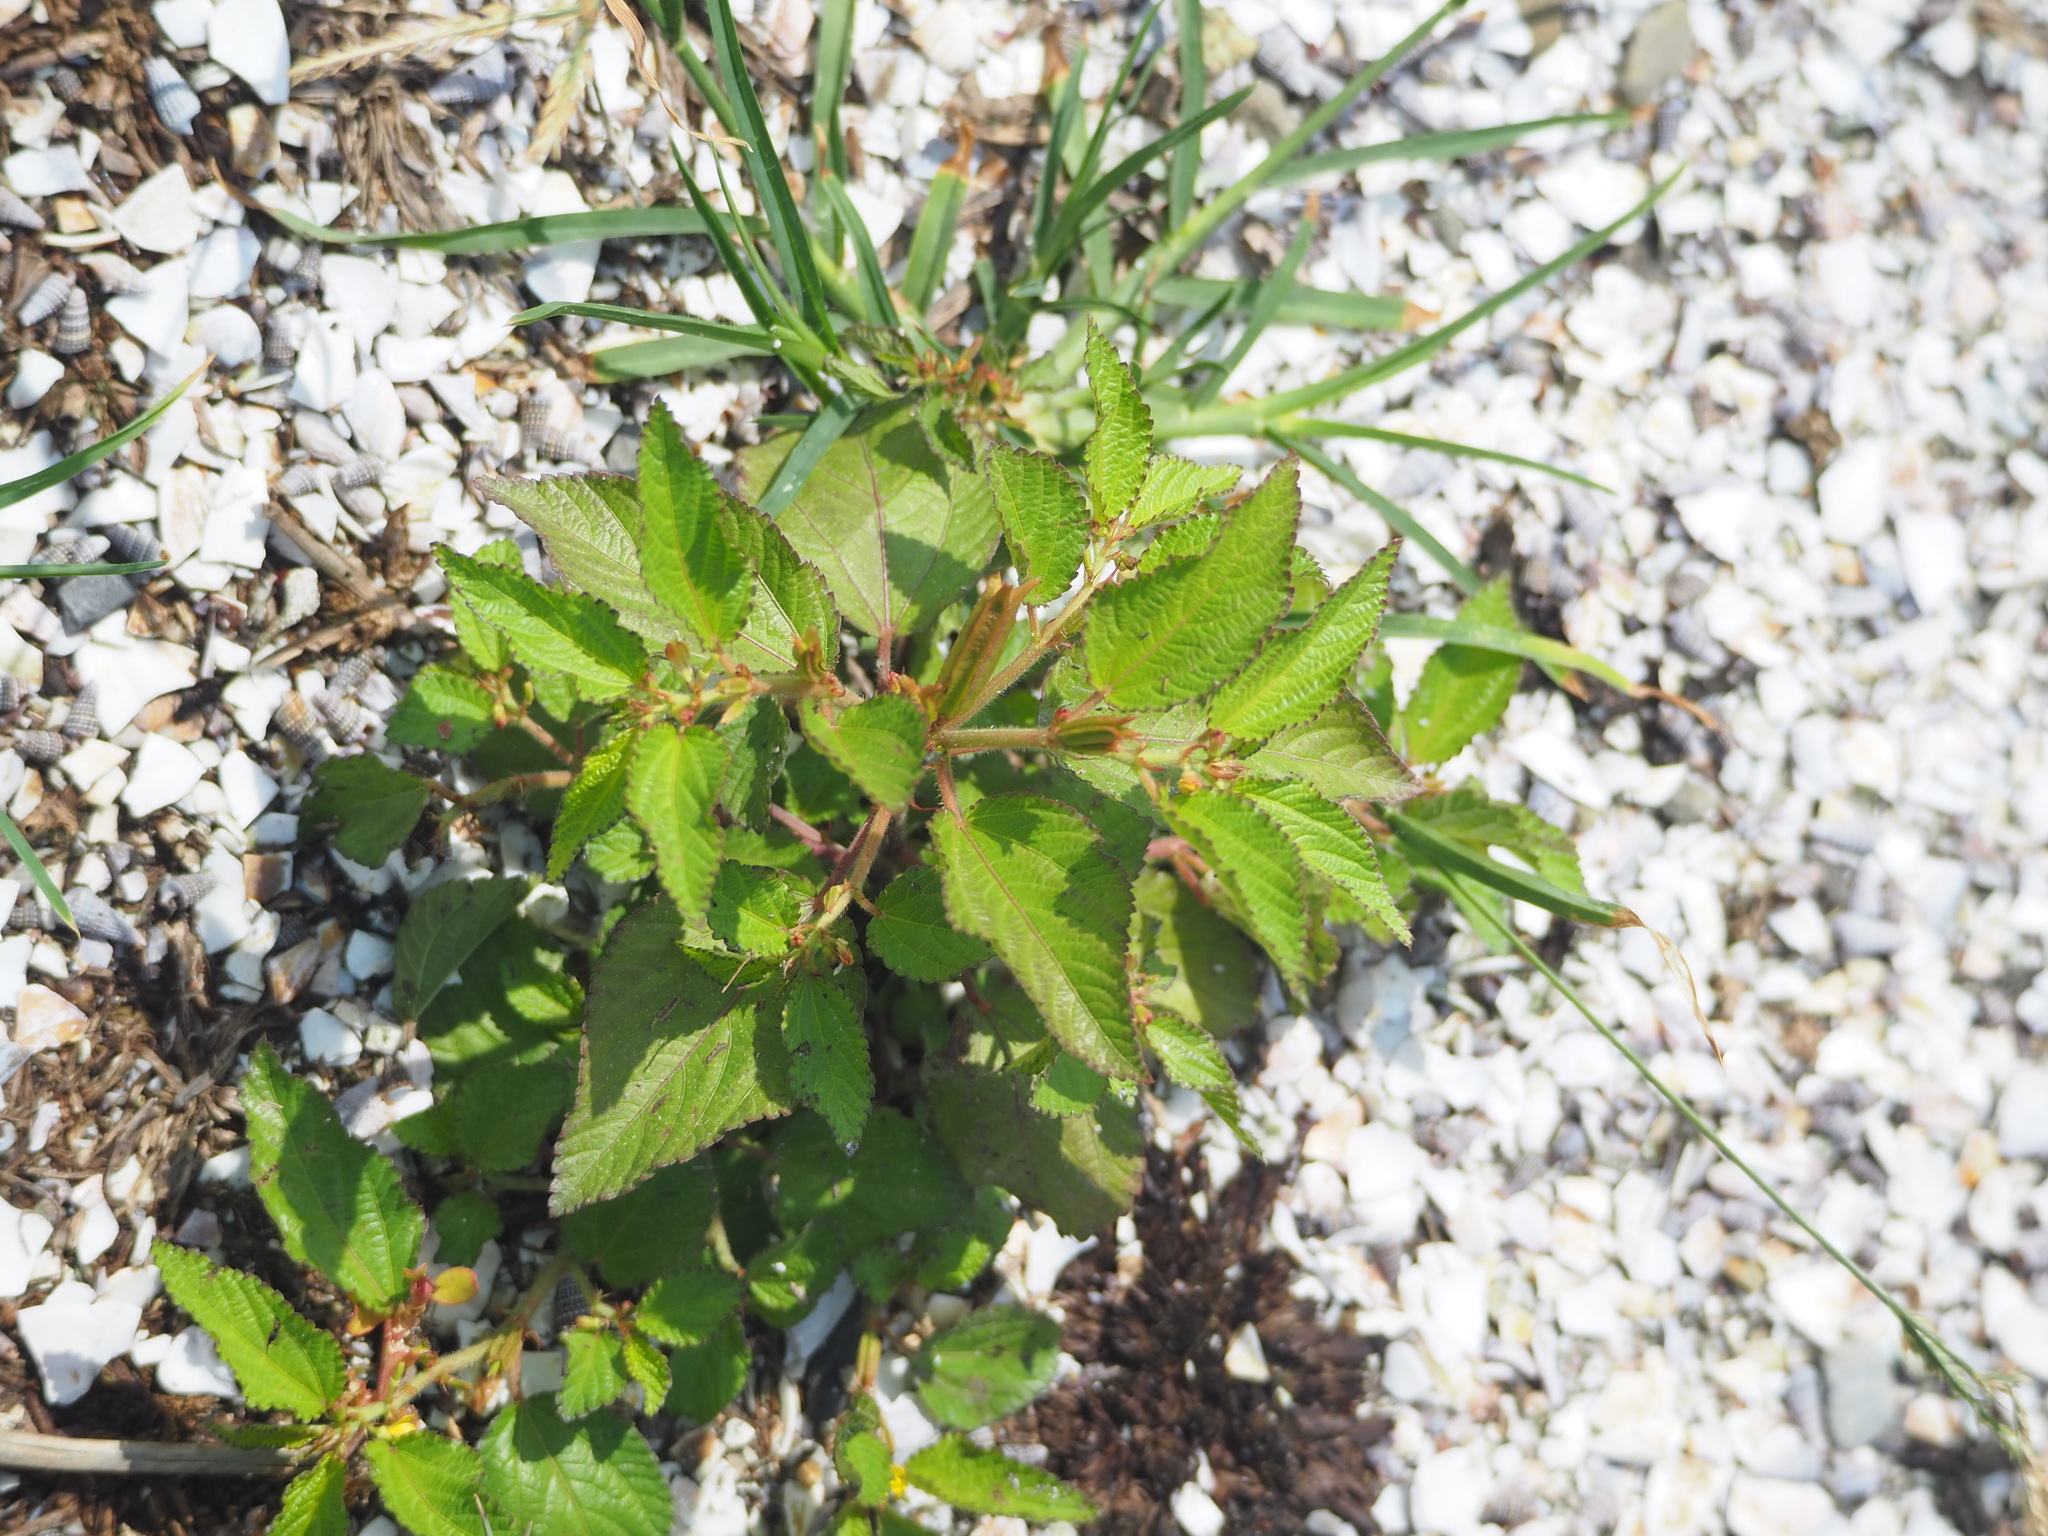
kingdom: Plantae
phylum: Tracheophyta
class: Magnoliopsida
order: Malvales
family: Malvaceae
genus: Corchorus
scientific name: Corchorus aestuans
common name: Jute
